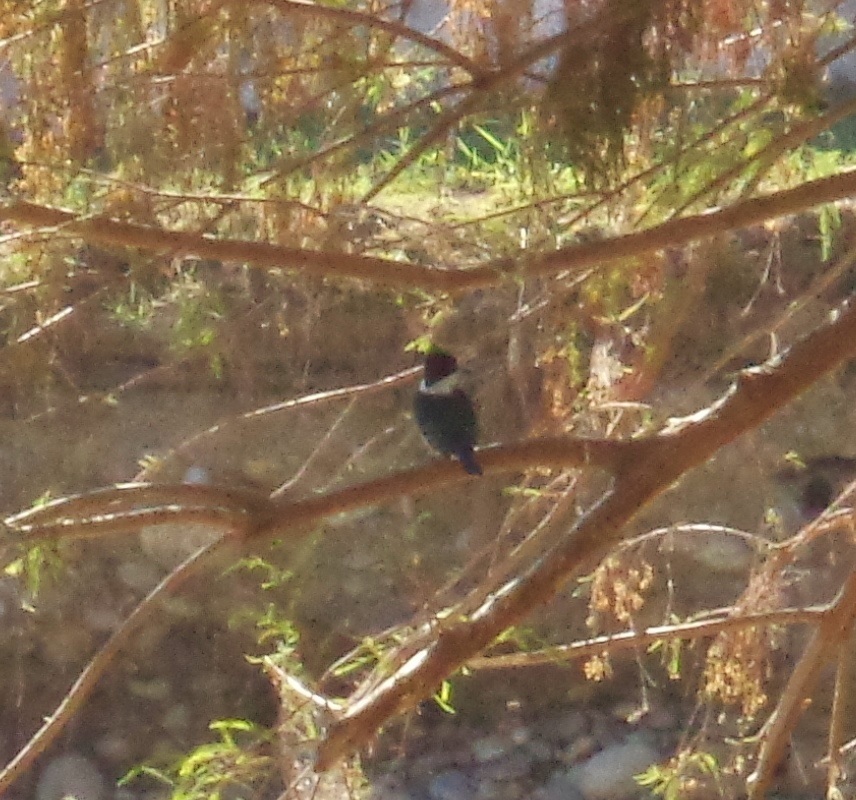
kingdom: Animalia
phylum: Chordata
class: Aves
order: Coraciiformes
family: Alcedinidae
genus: Chloroceryle
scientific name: Chloroceryle americana
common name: Green kingfisher
